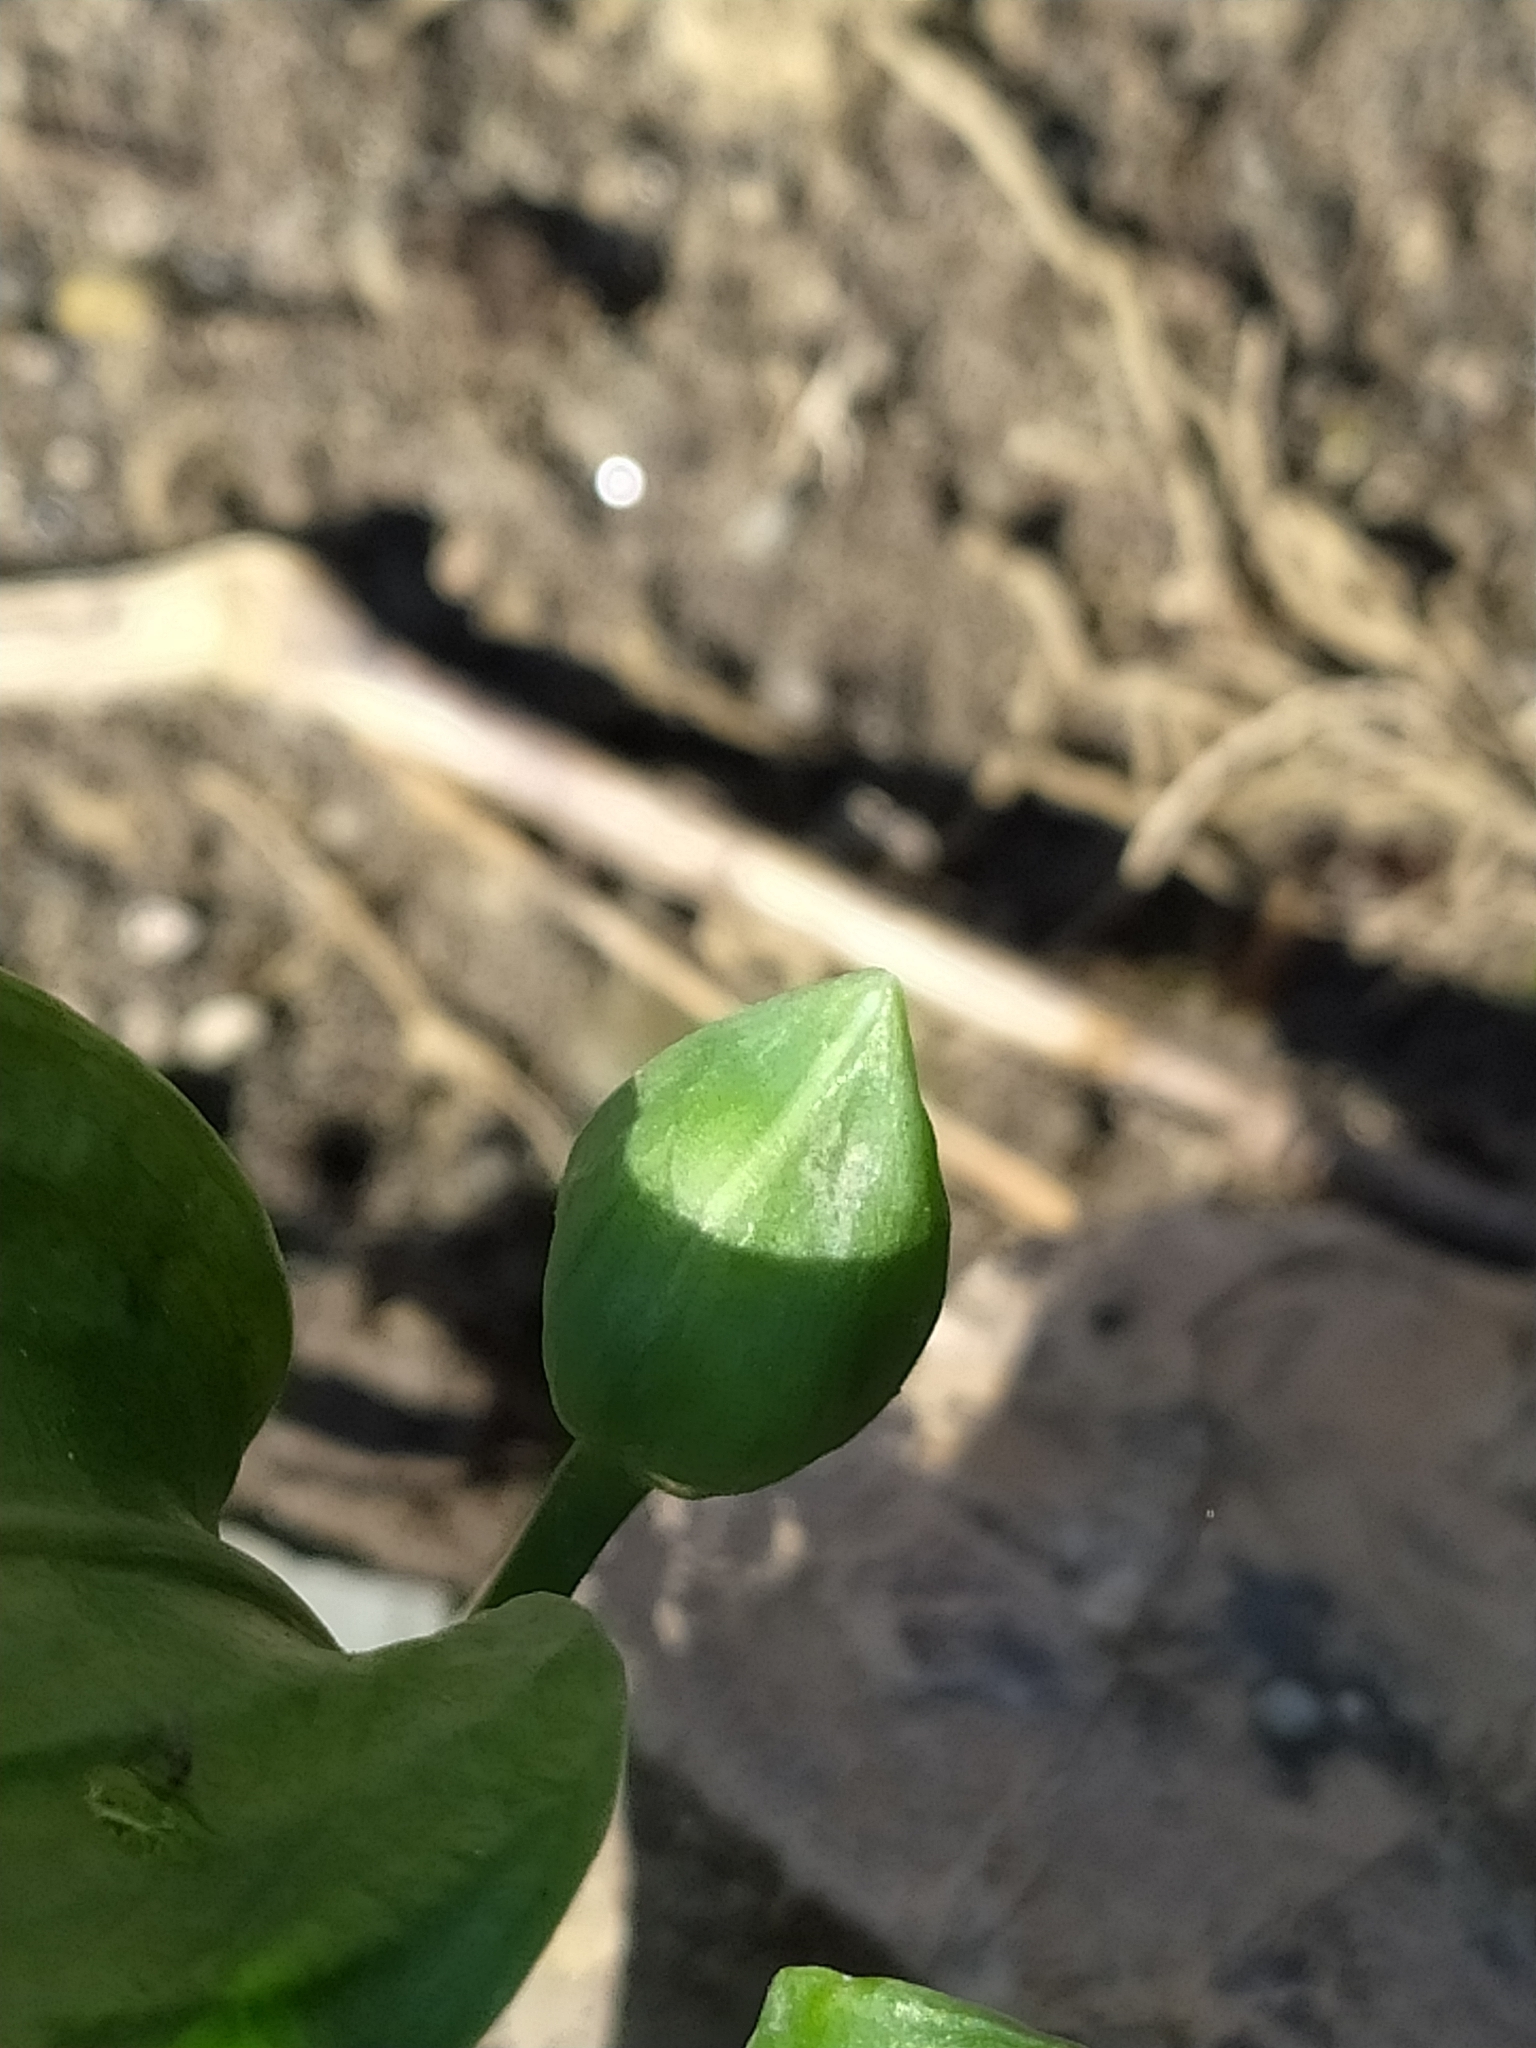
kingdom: Plantae
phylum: Tracheophyta
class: Liliopsida
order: Asparagales
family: Amaryllidaceae
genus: Allium
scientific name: Allium ursinum
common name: Ramsons
